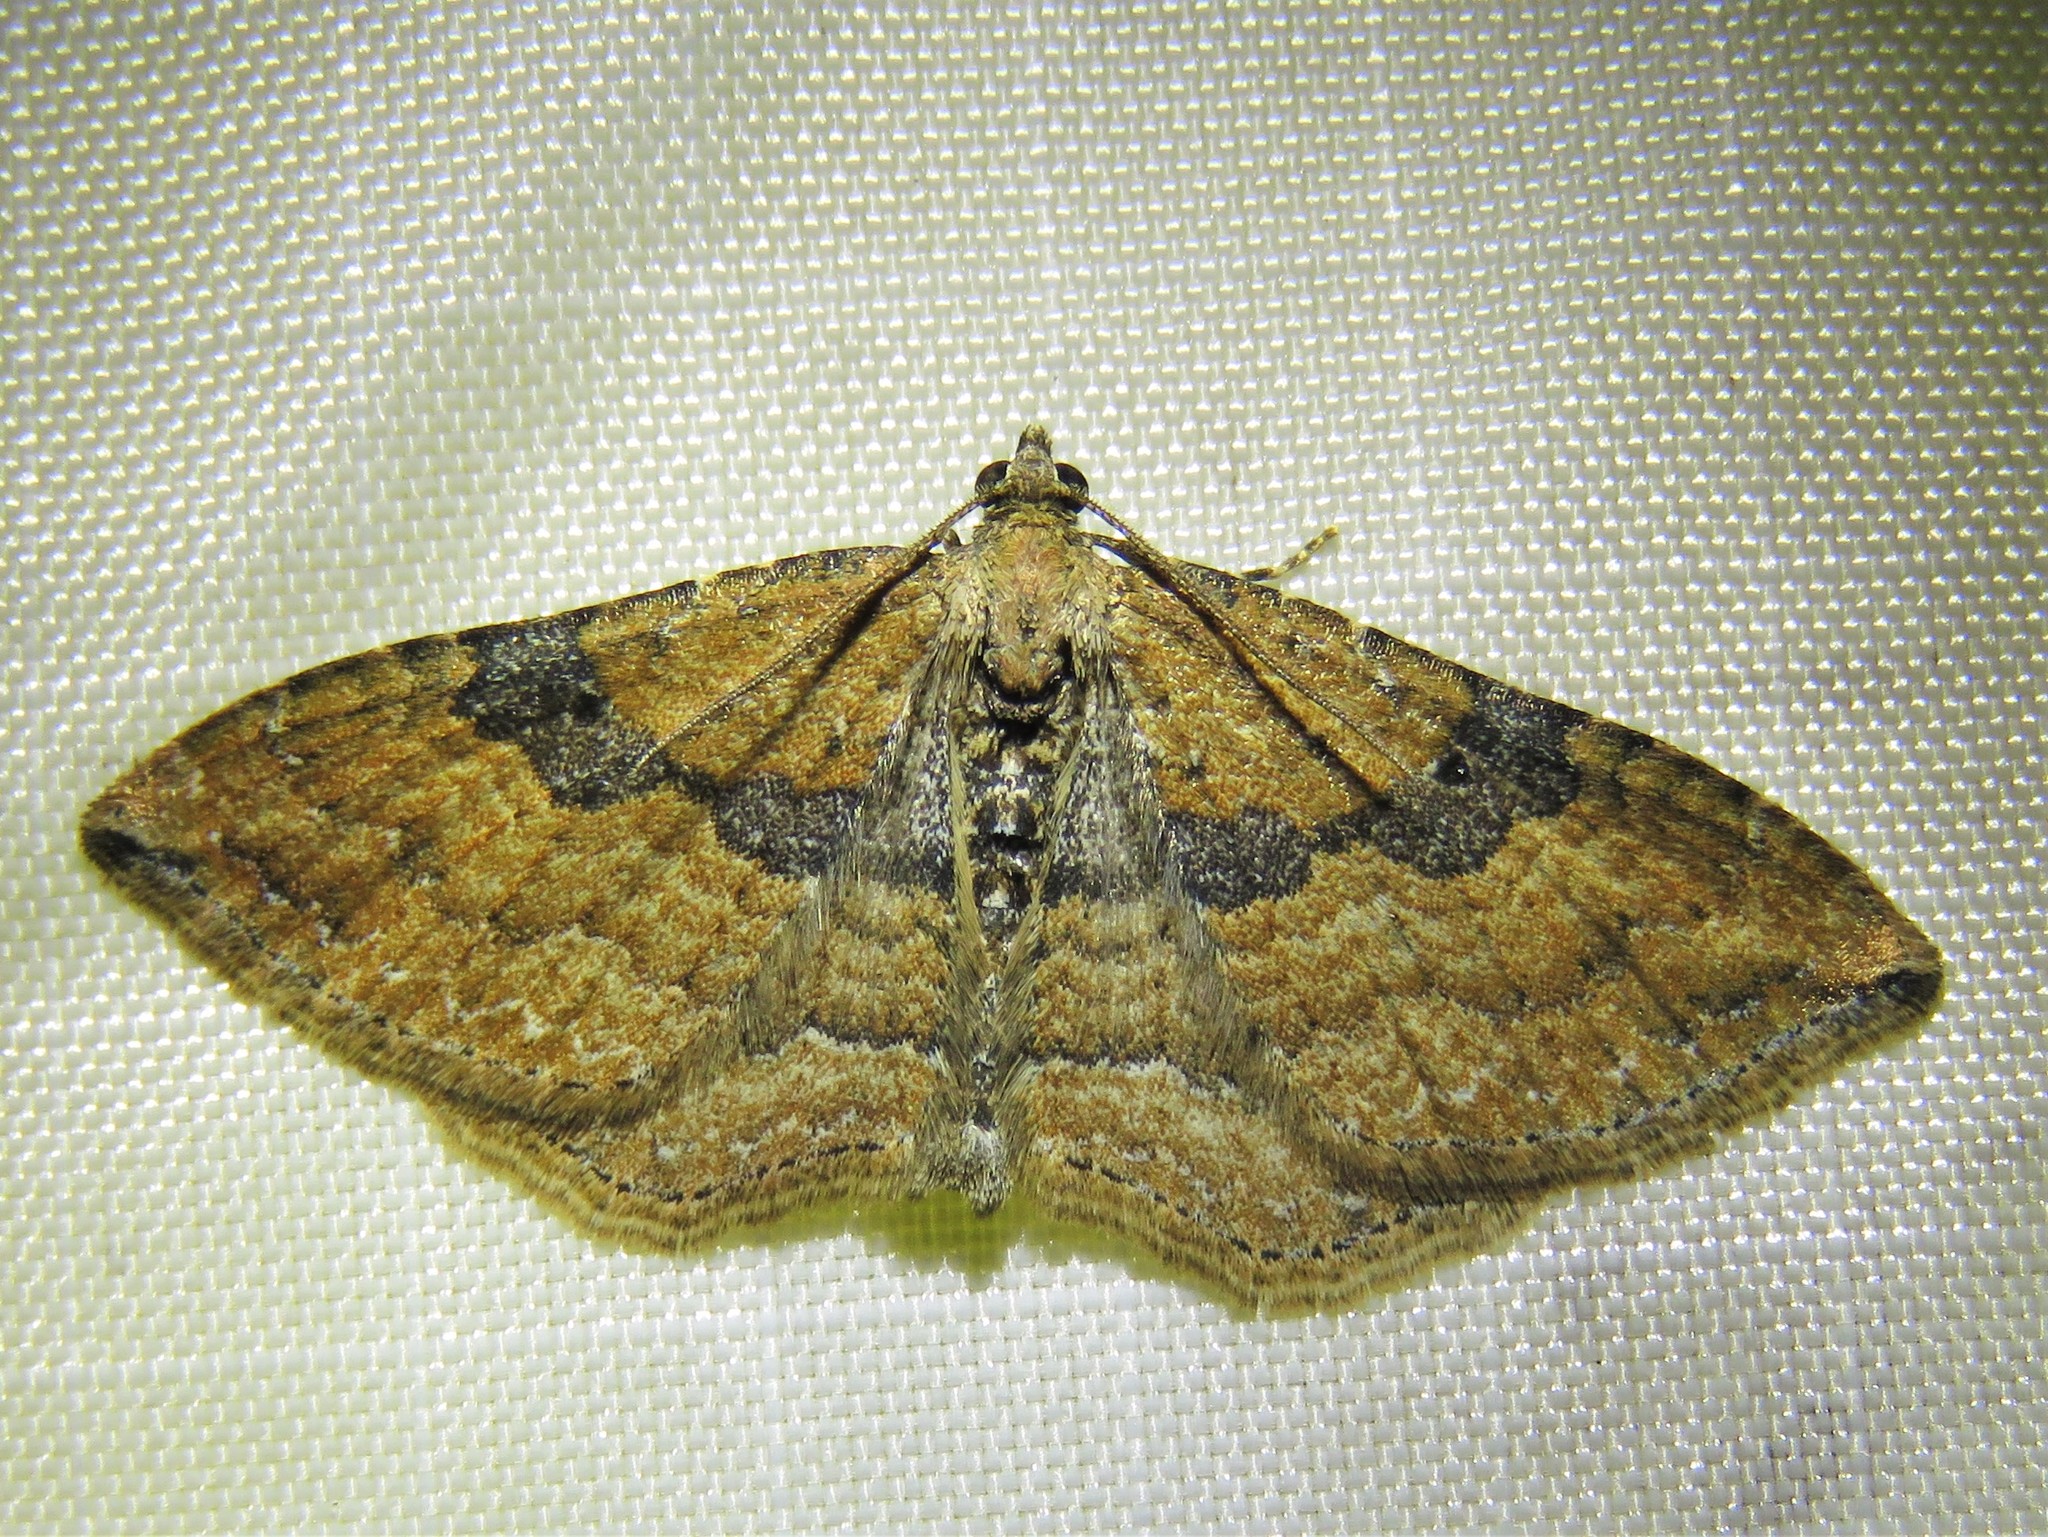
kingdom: Animalia
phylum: Arthropoda
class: Insecta
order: Lepidoptera
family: Geometridae
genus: Orthonama
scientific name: Orthonama obstipata
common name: The gem
